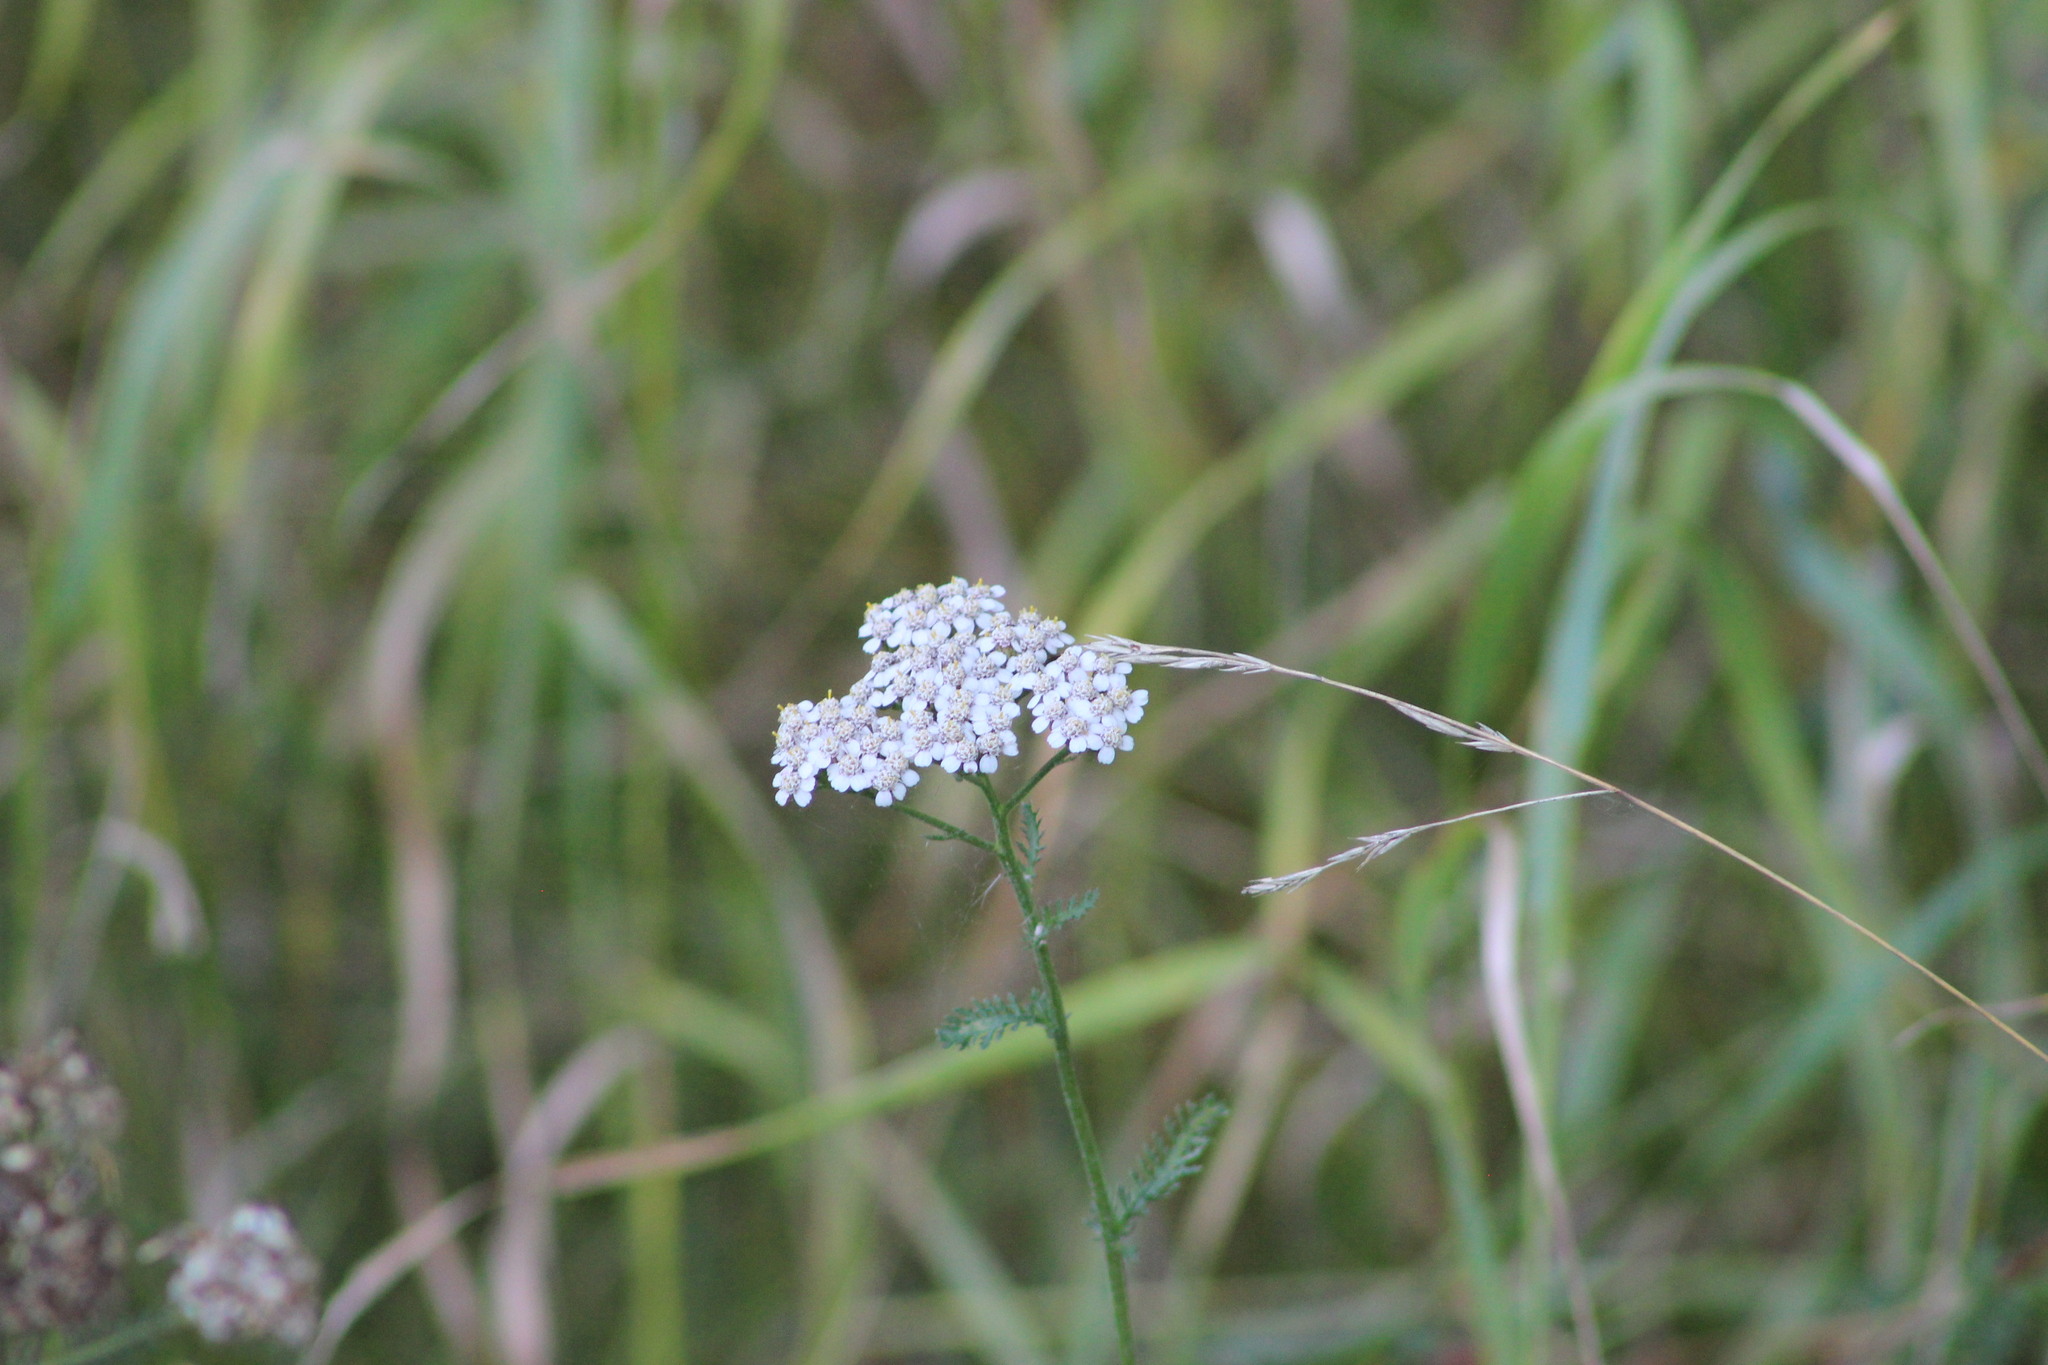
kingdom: Plantae
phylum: Tracheophyta
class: Magnoliopsida
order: Asterales
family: Asteraceae
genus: Achillea
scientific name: Achillea millefolium
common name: Yarrow
